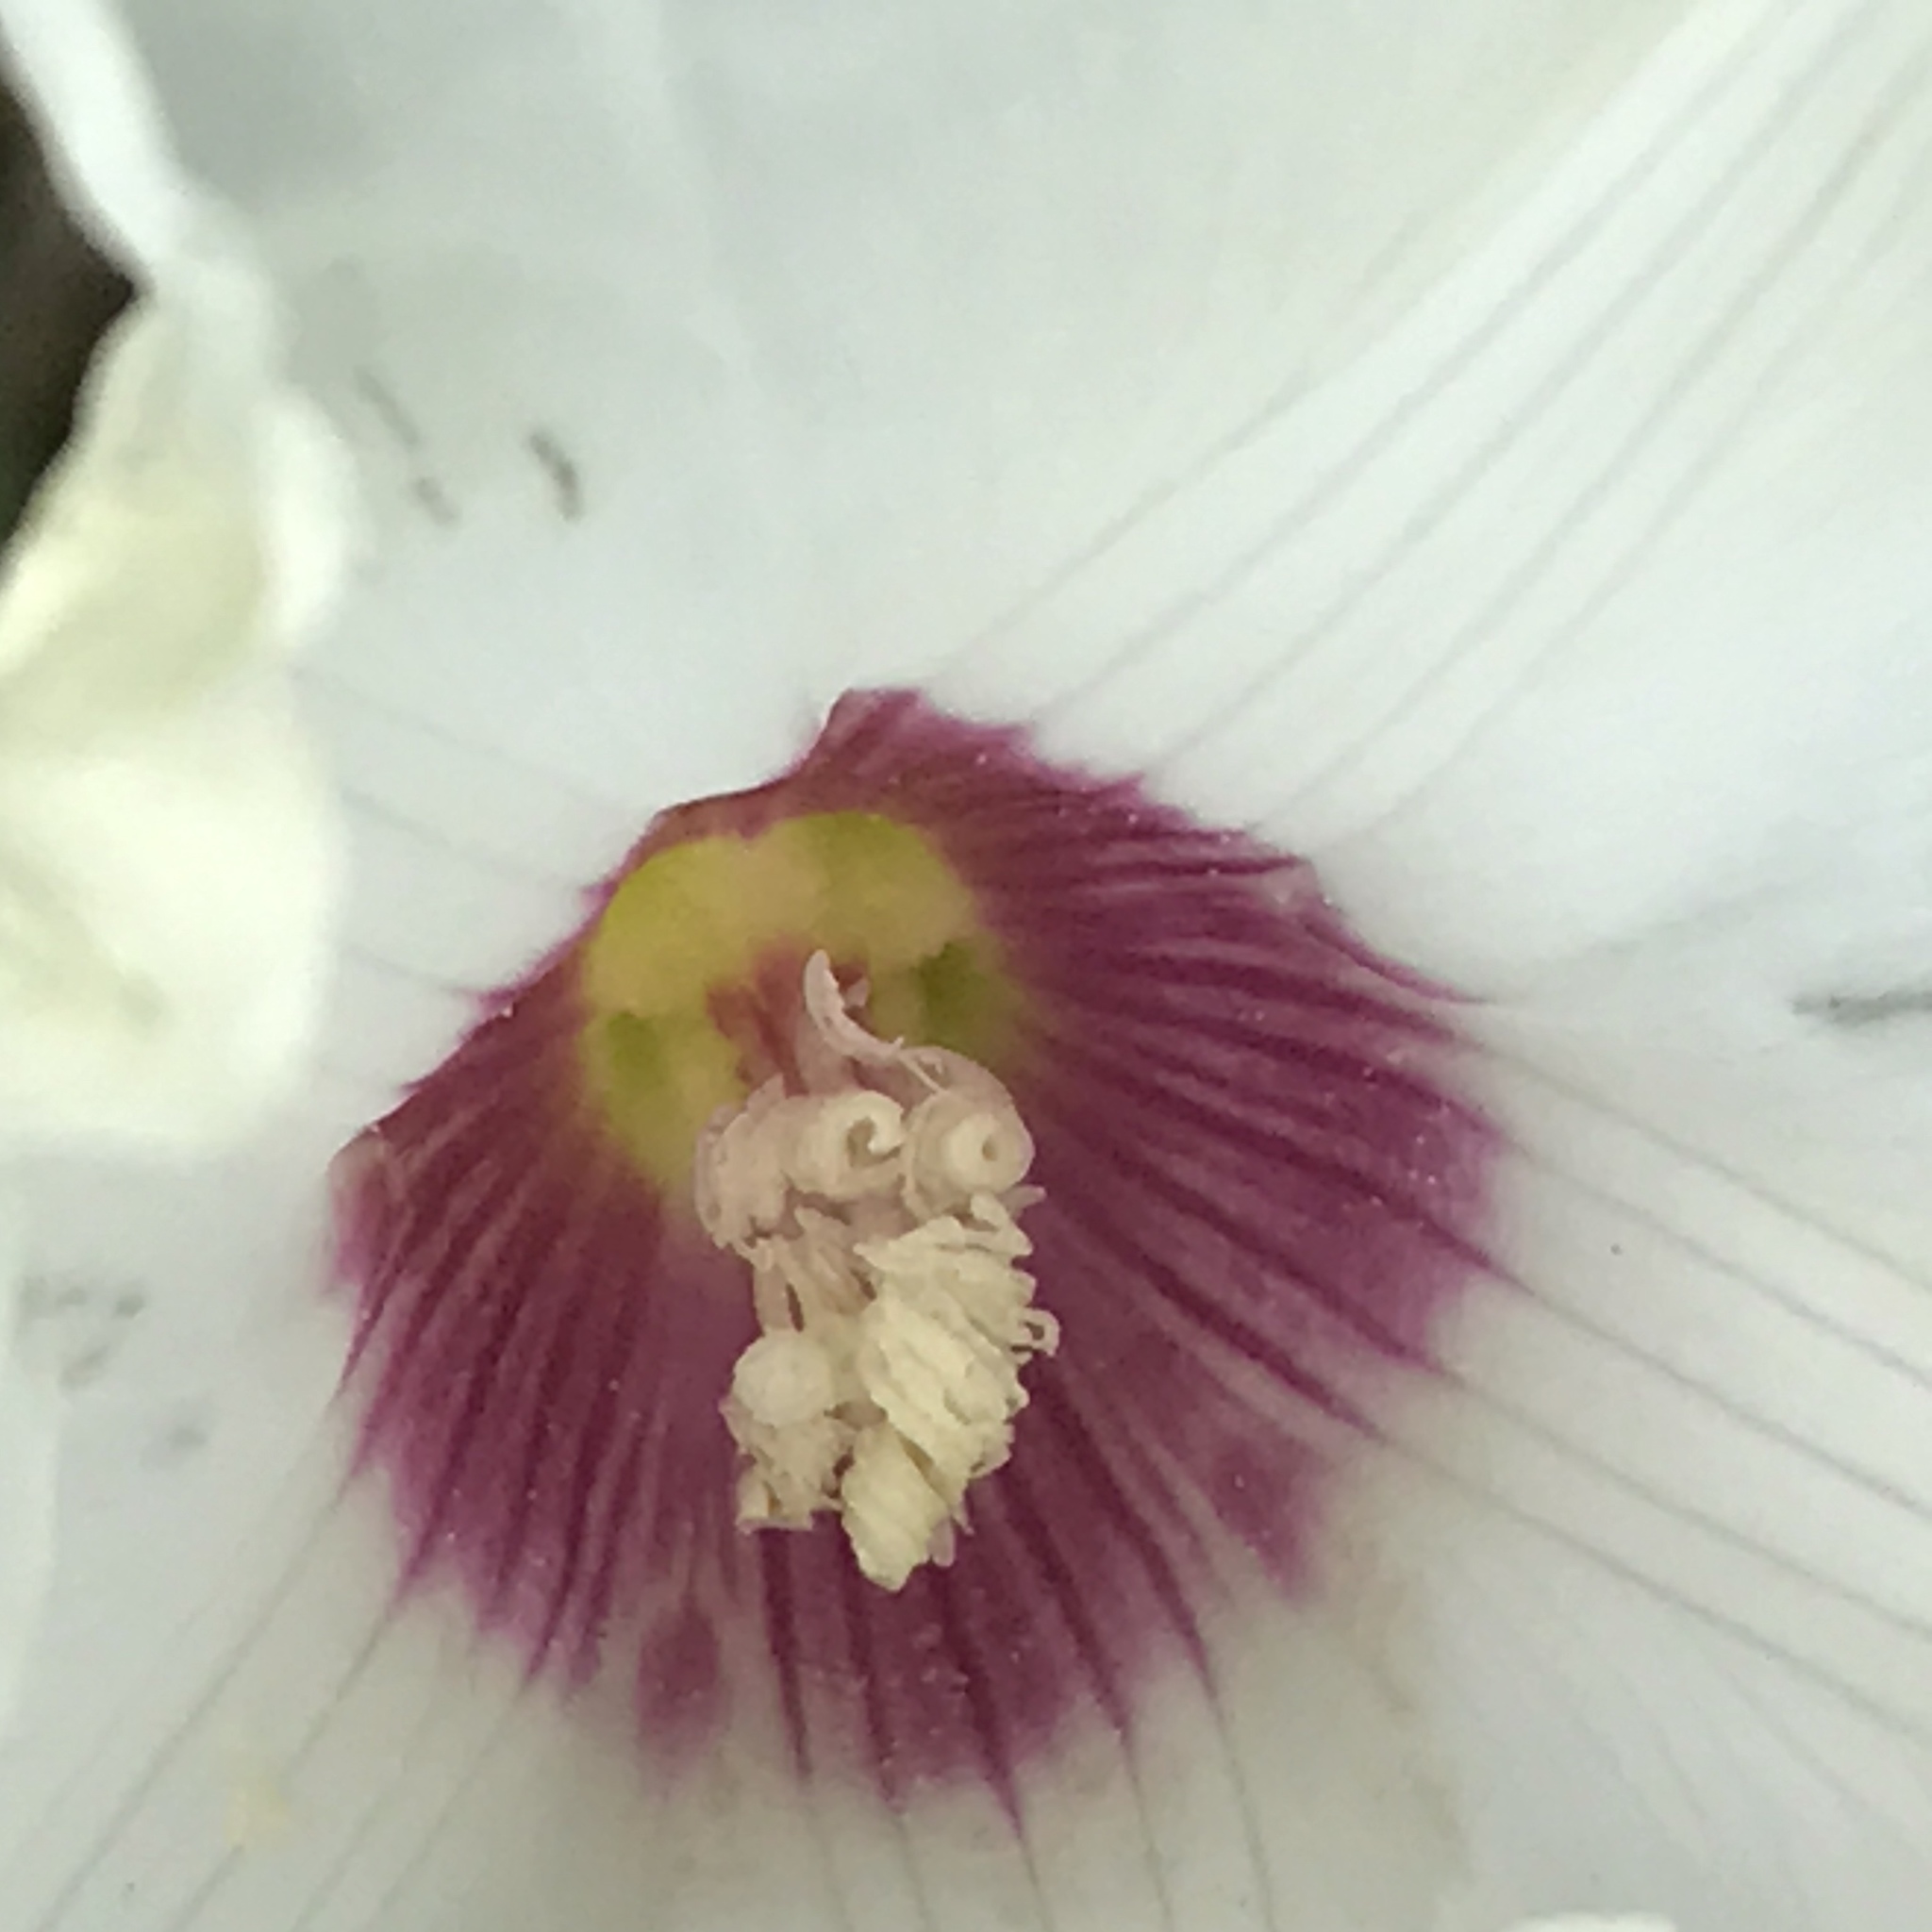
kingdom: Plantae
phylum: Tracheophyta
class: Magnoliopsida
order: Solanales
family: Convolvulaceae
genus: Distimake
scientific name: Distimake dissectus
